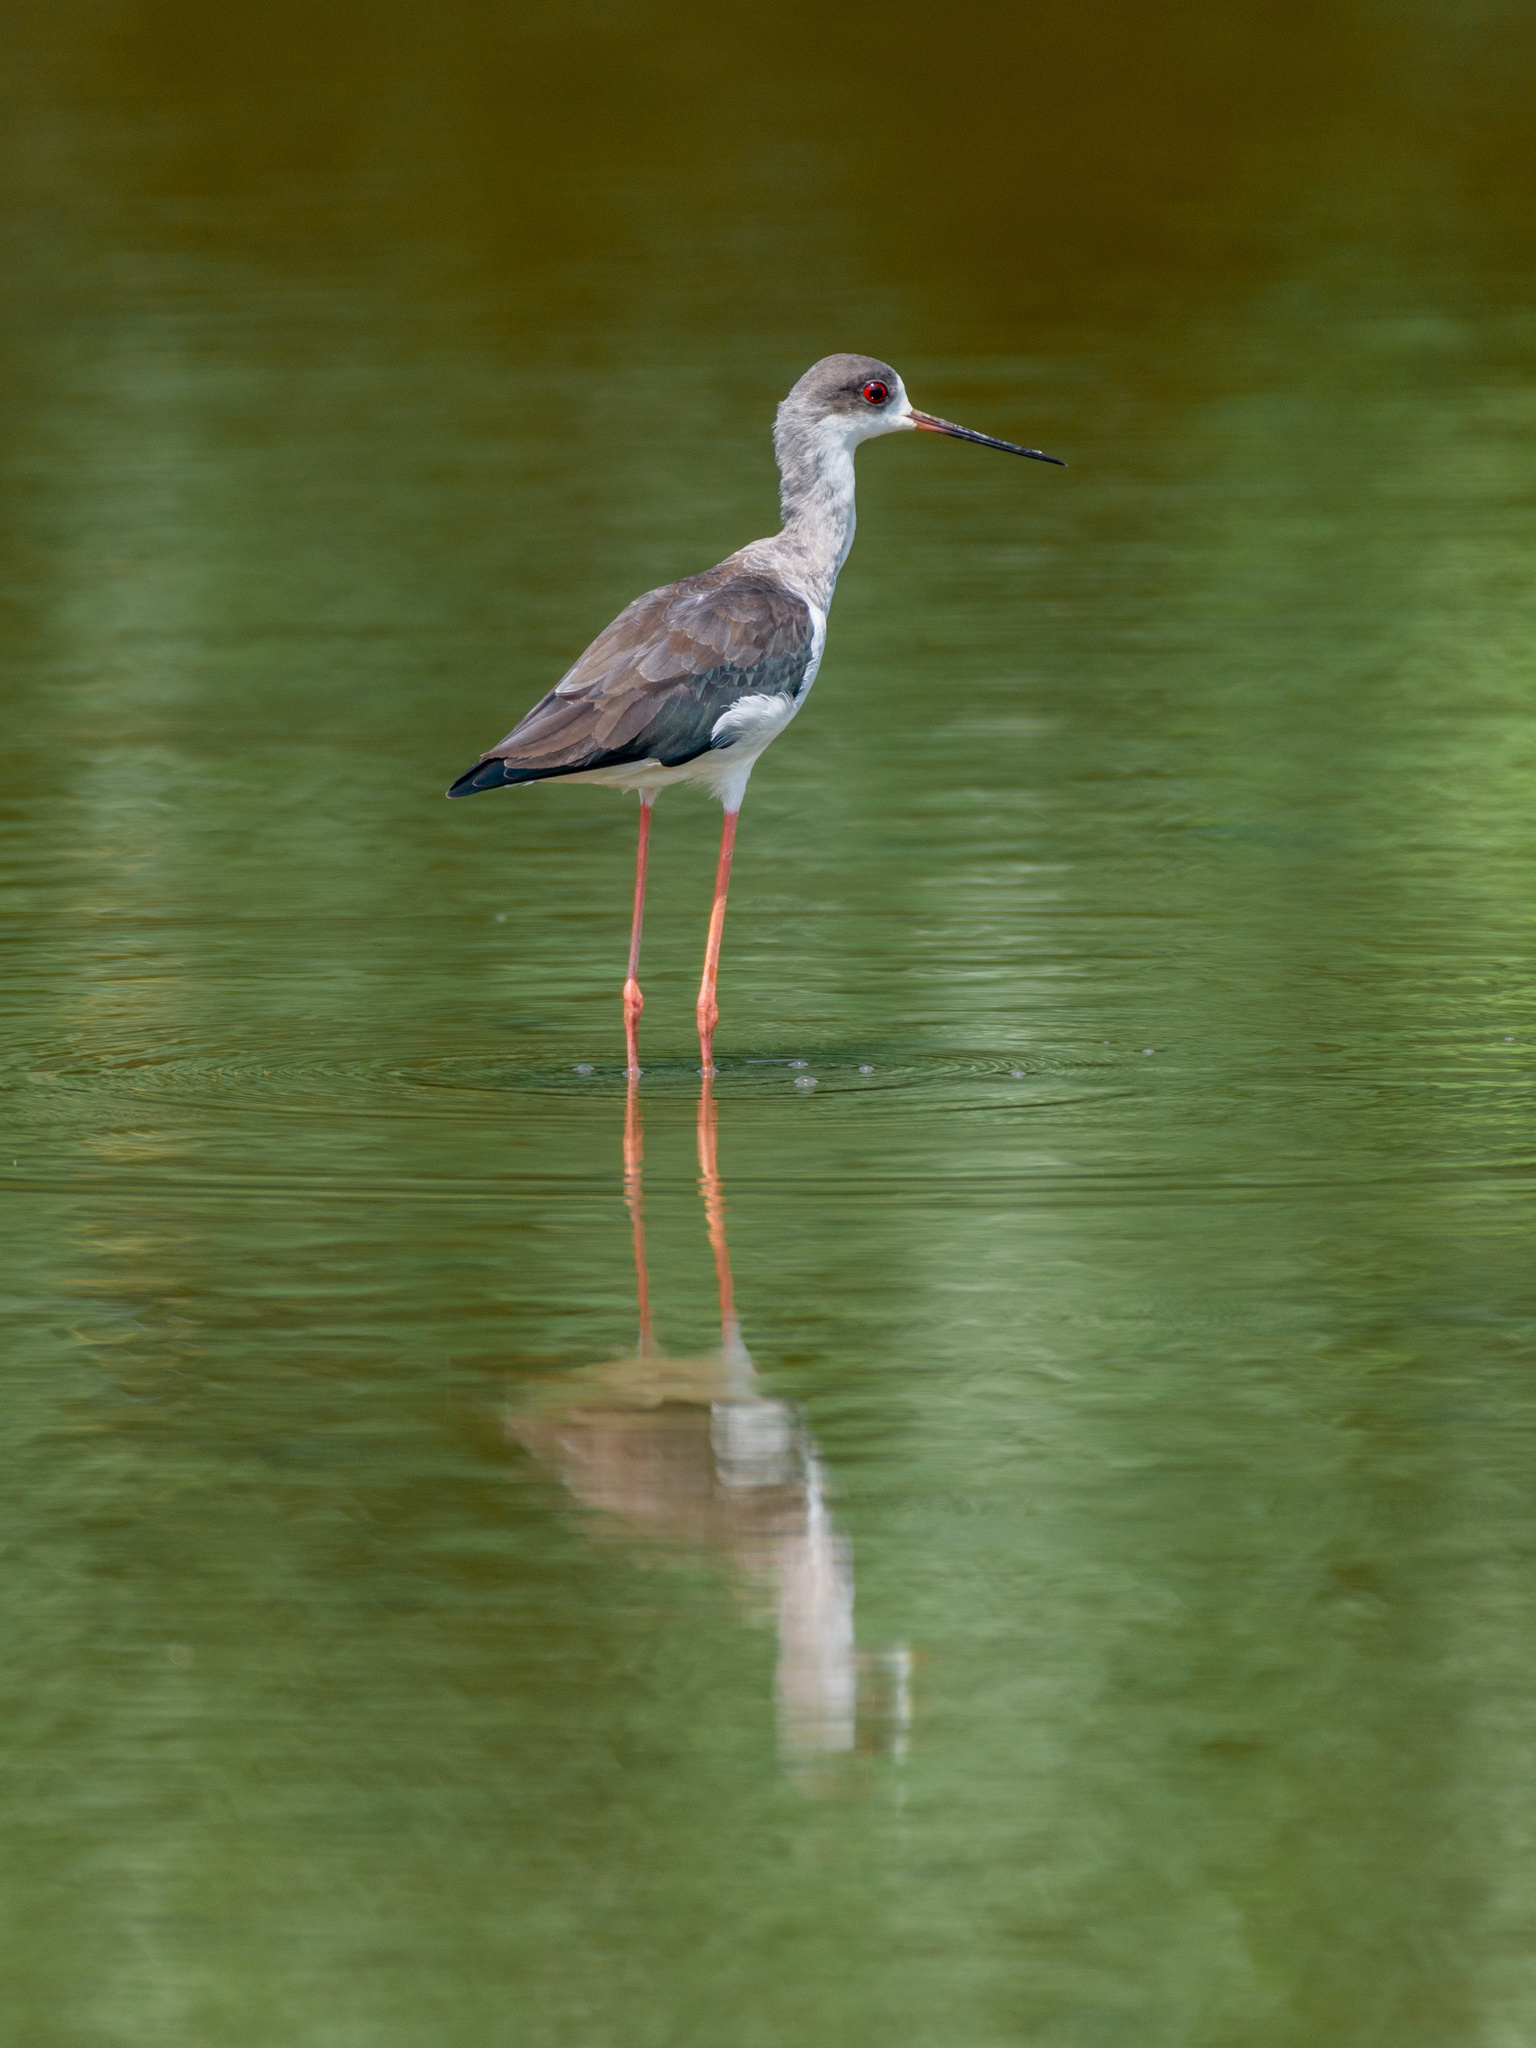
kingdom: Animalia
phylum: Chordata
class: Aves
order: Charadriiformes
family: Recurvirostridae
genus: Himantopus
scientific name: Himantopus himantopus
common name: Black-winged stilt
